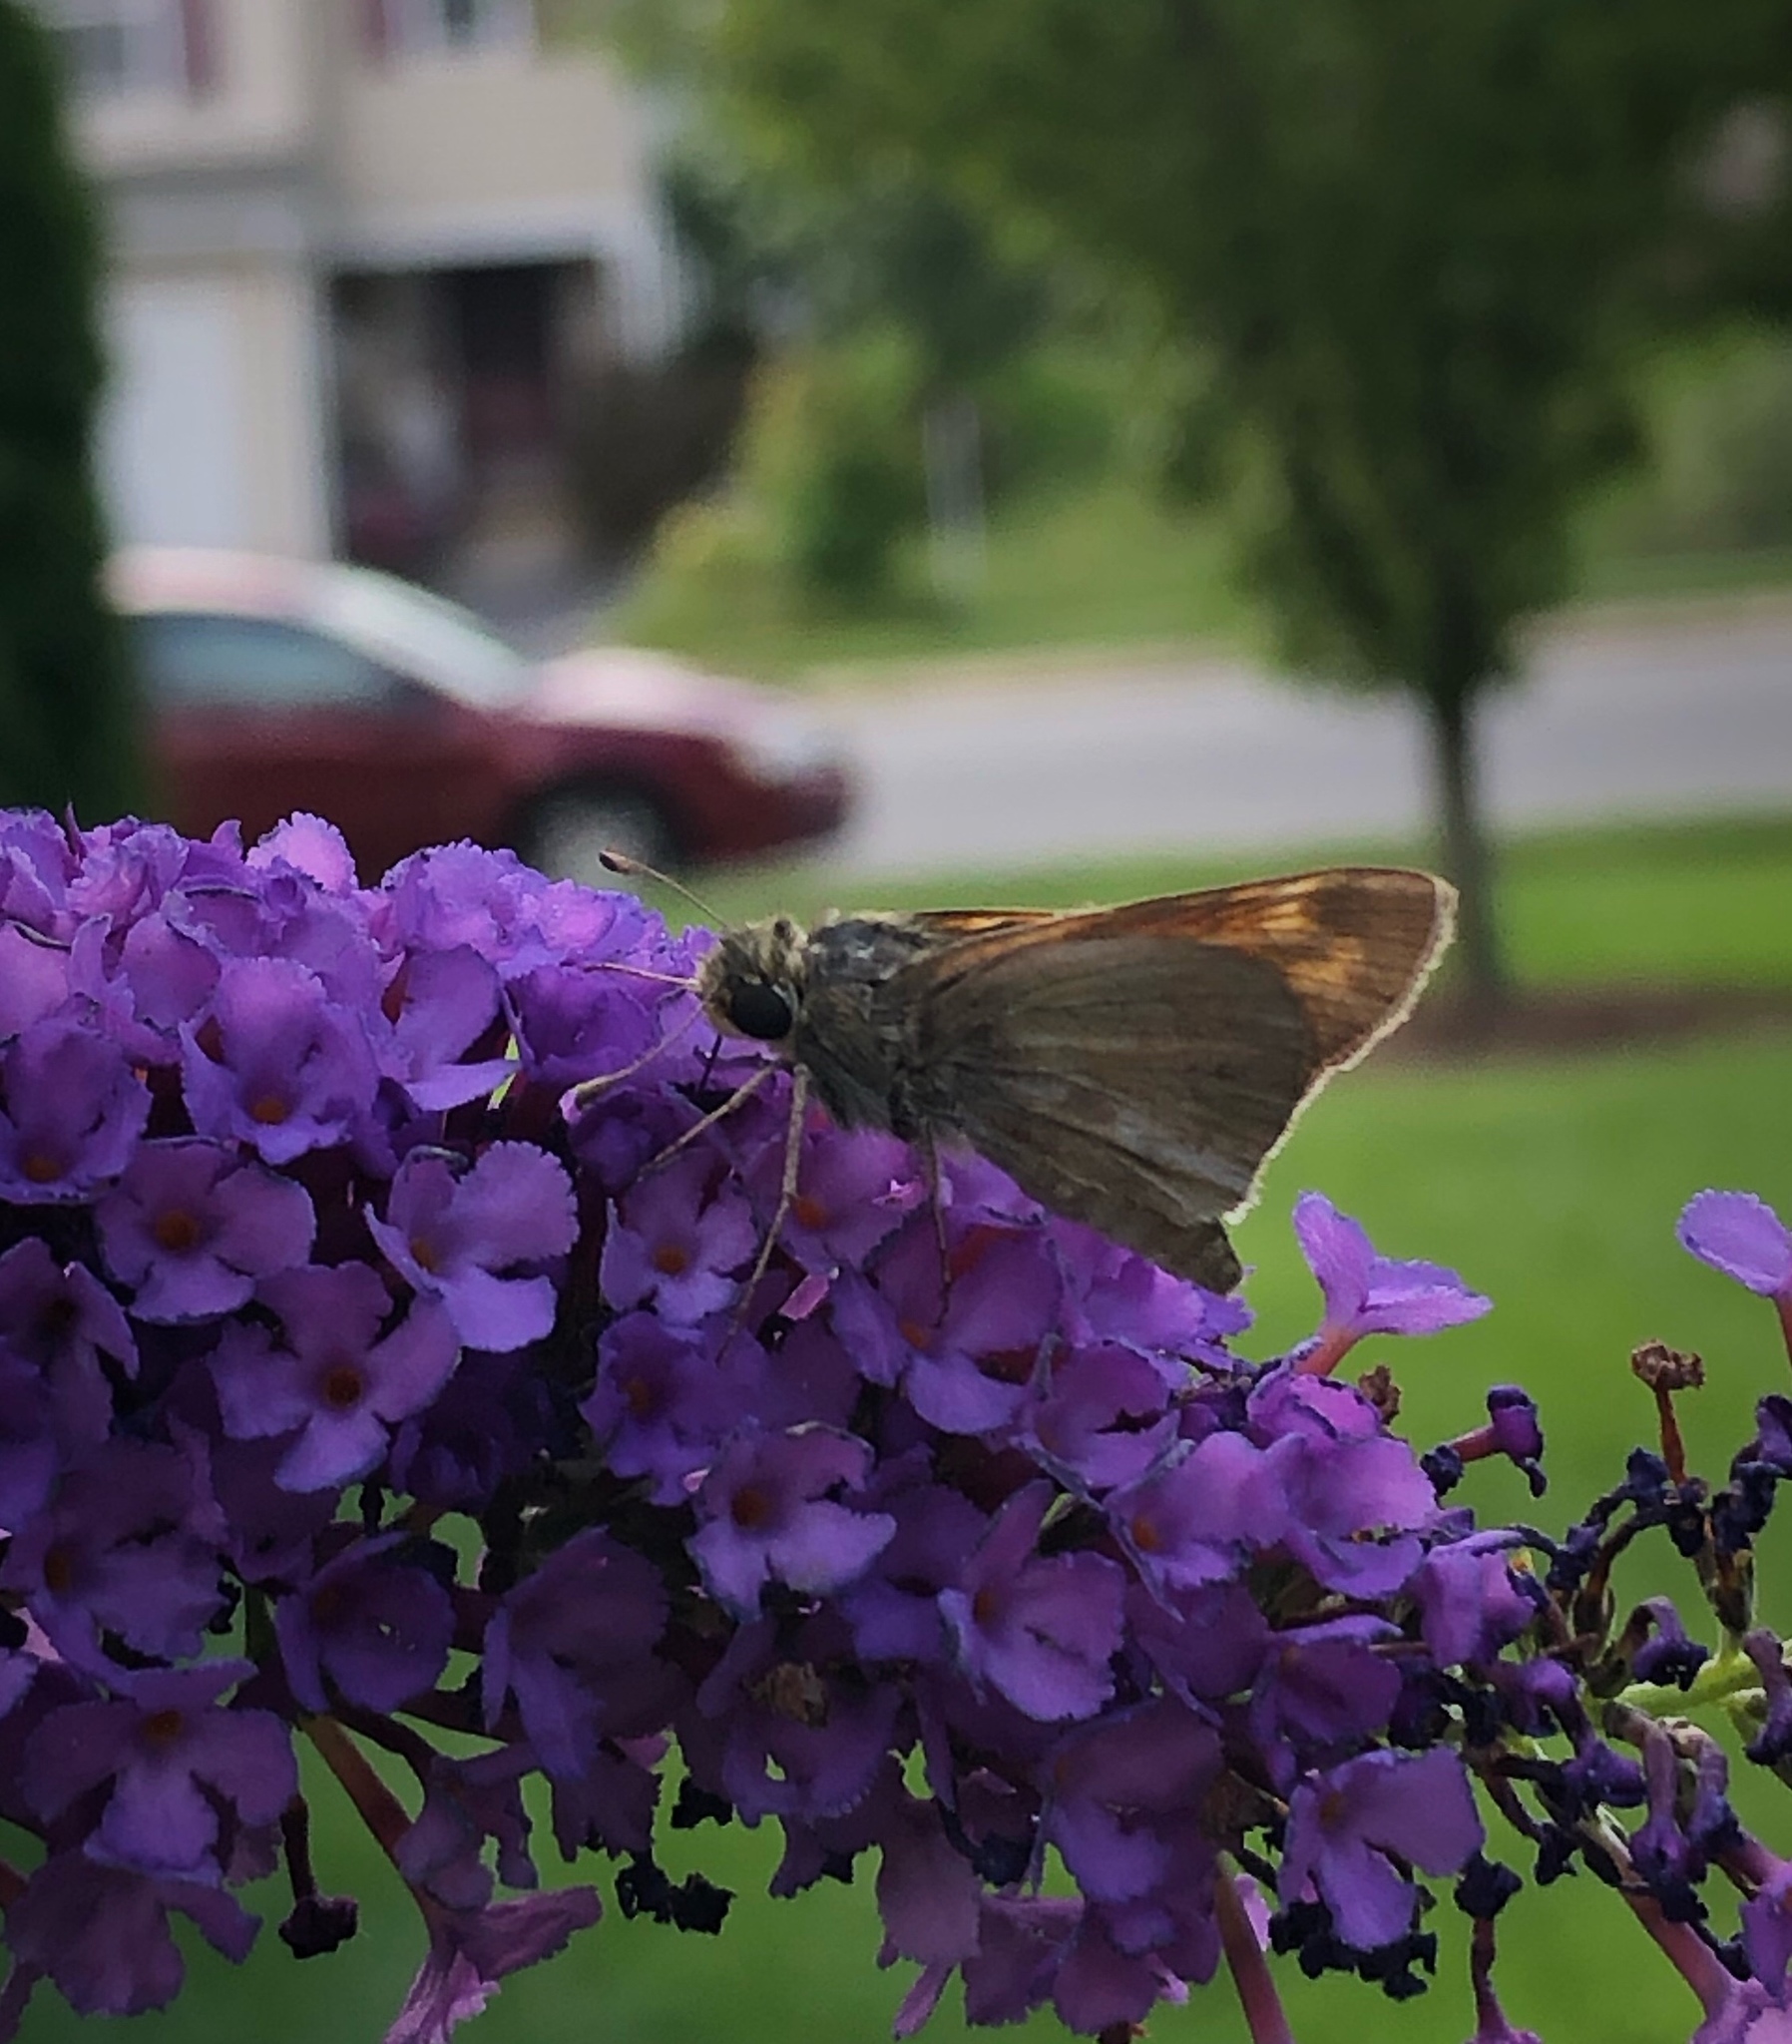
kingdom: Animalia
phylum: Arthropoda
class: Insecta
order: Lepidoptera
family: Hesperiidae
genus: Atalopedes
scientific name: Atalopedes
